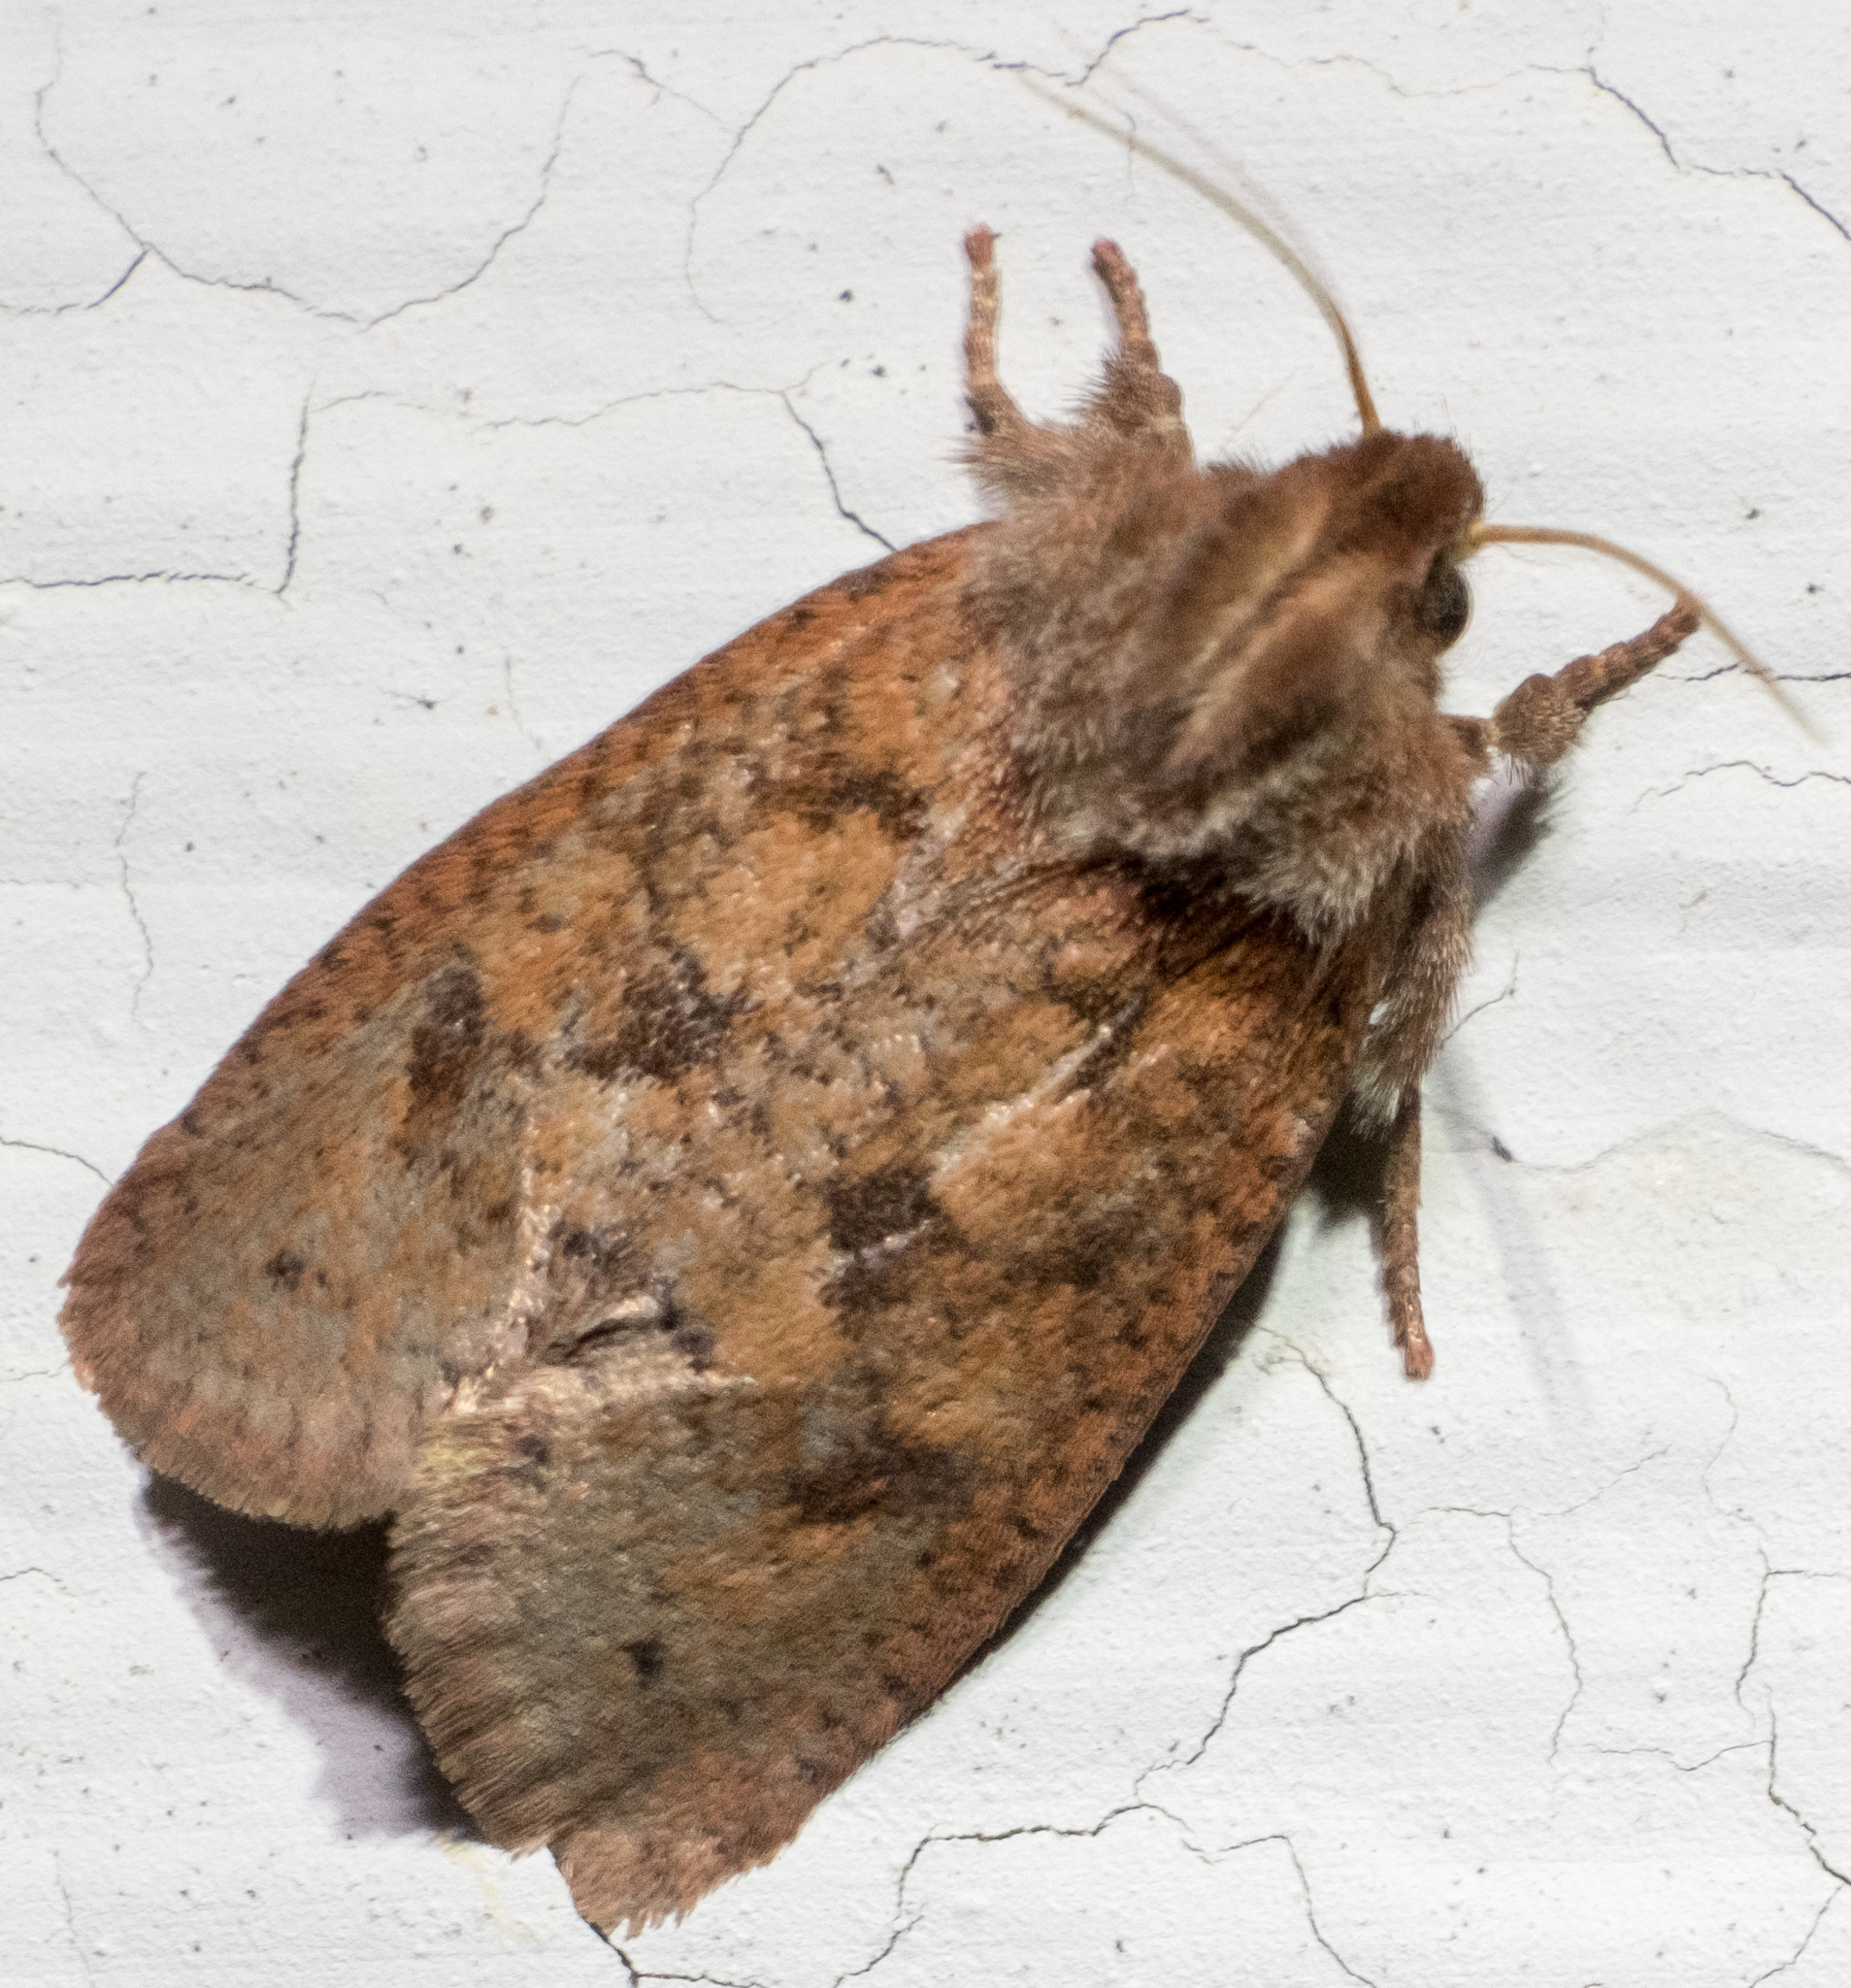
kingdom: Animalia
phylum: Arthropoda
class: Insecta
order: Lepidoptera
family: Tineidae
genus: Acrolophus
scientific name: Acrolophus plumifrontella
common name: Eastern grass tubeworm moth
